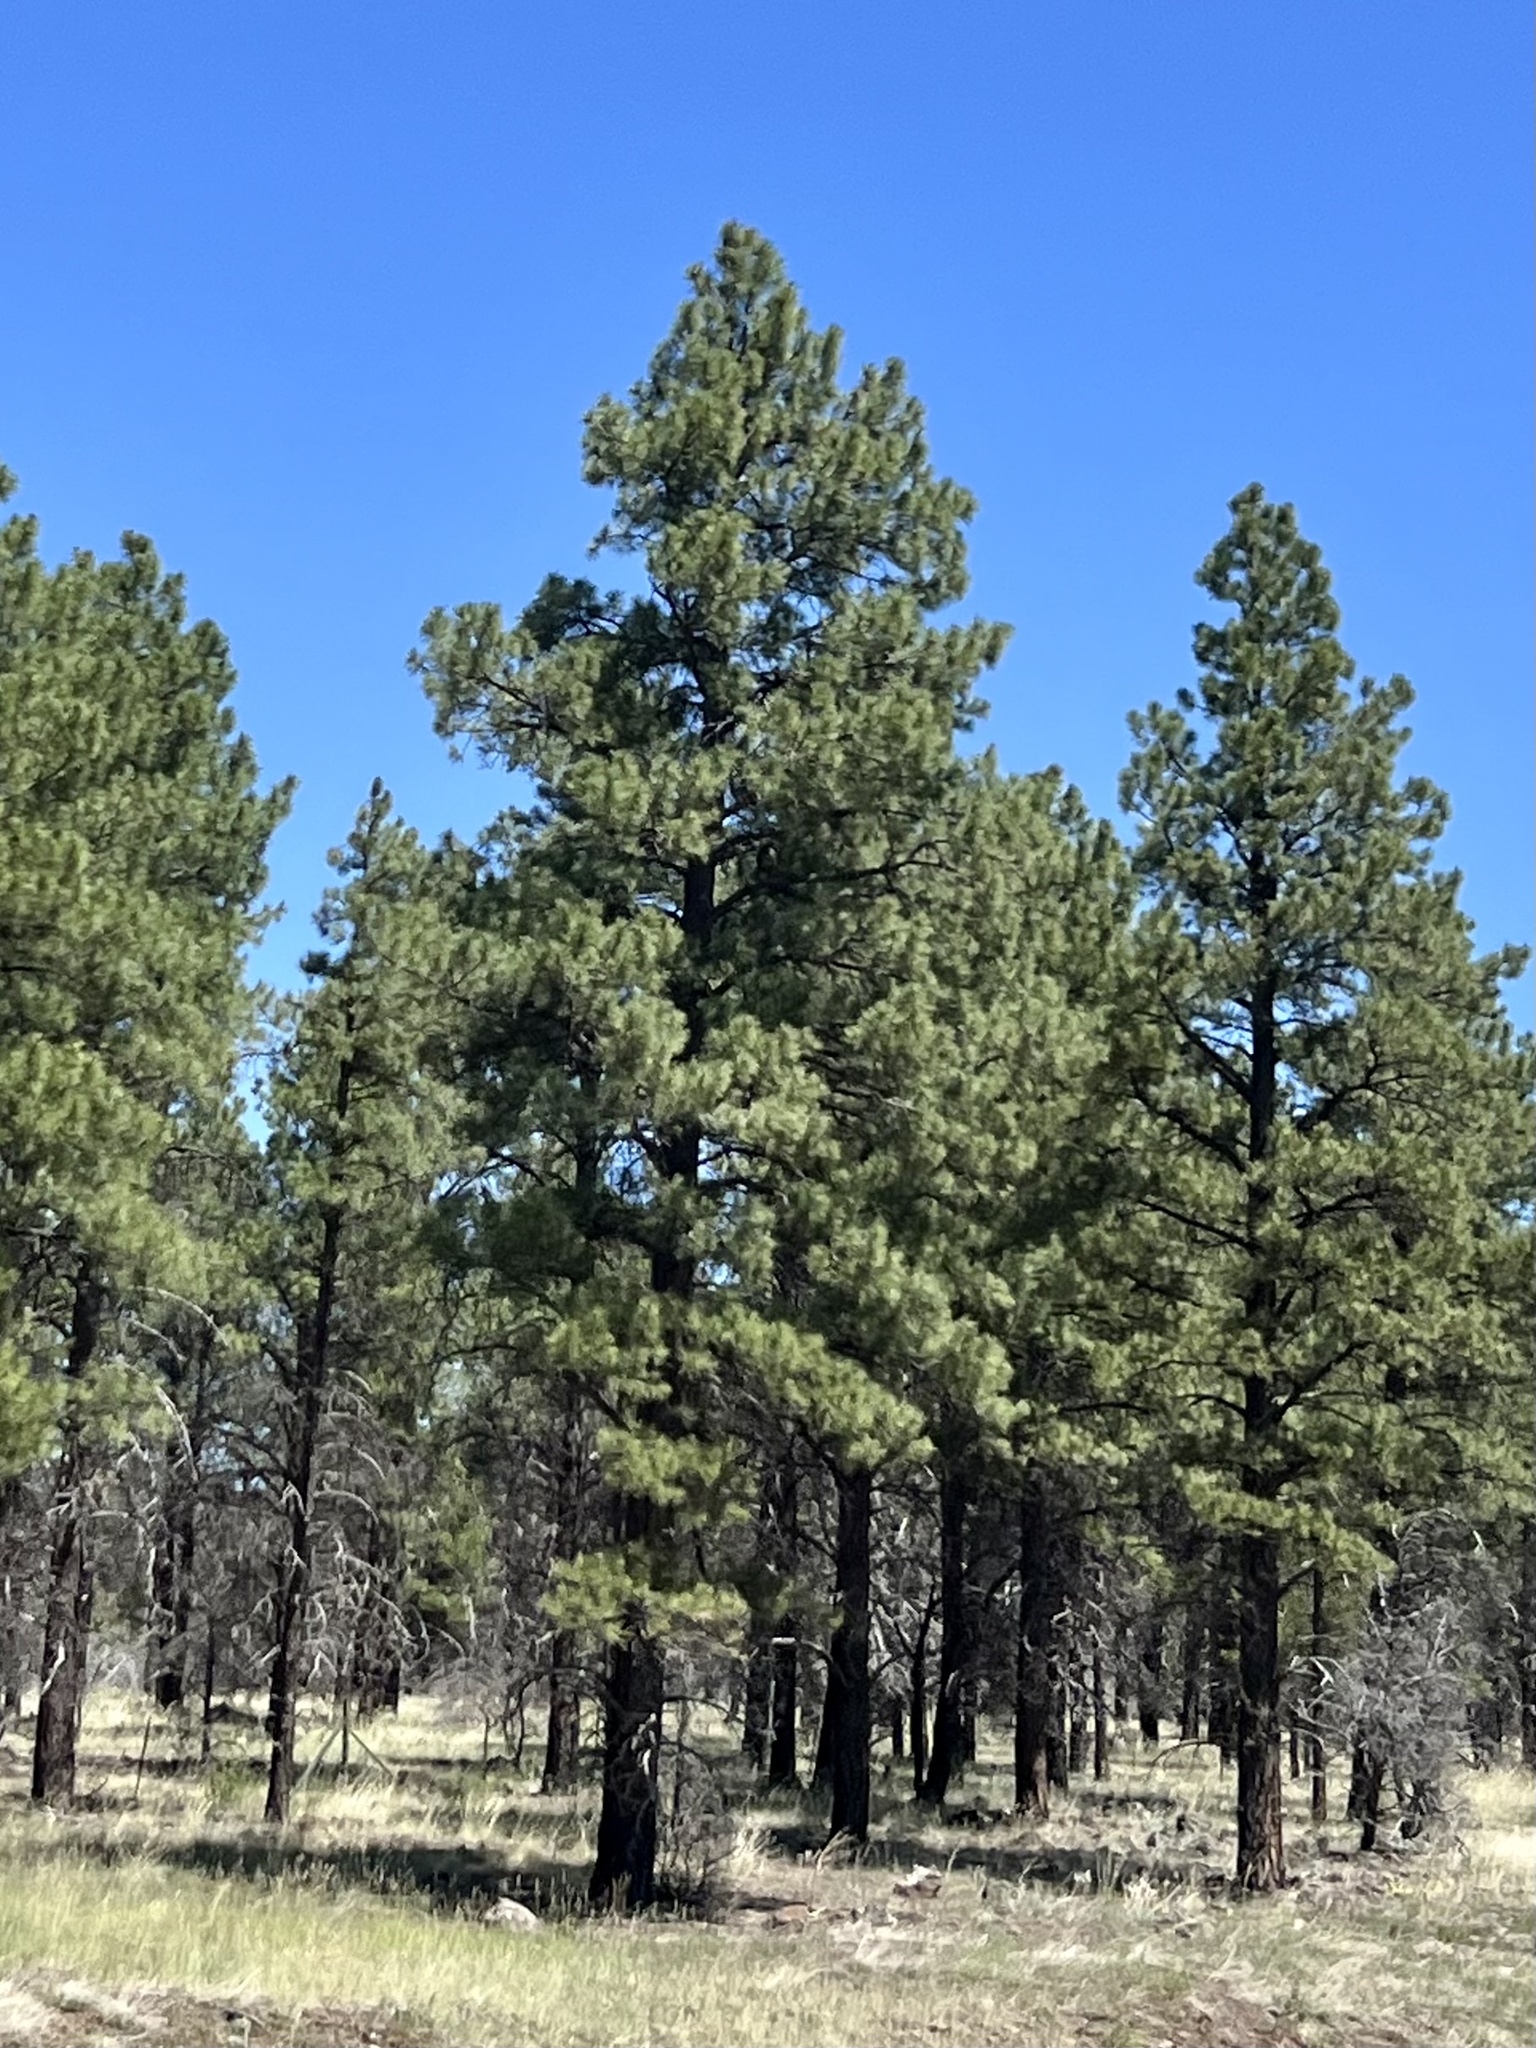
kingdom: Plantae
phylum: Tracheophyta
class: Pinopsida
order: Pinales
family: Pinaceae
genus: Pinus
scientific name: Pinus ponderosa
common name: Western yellow-pine
